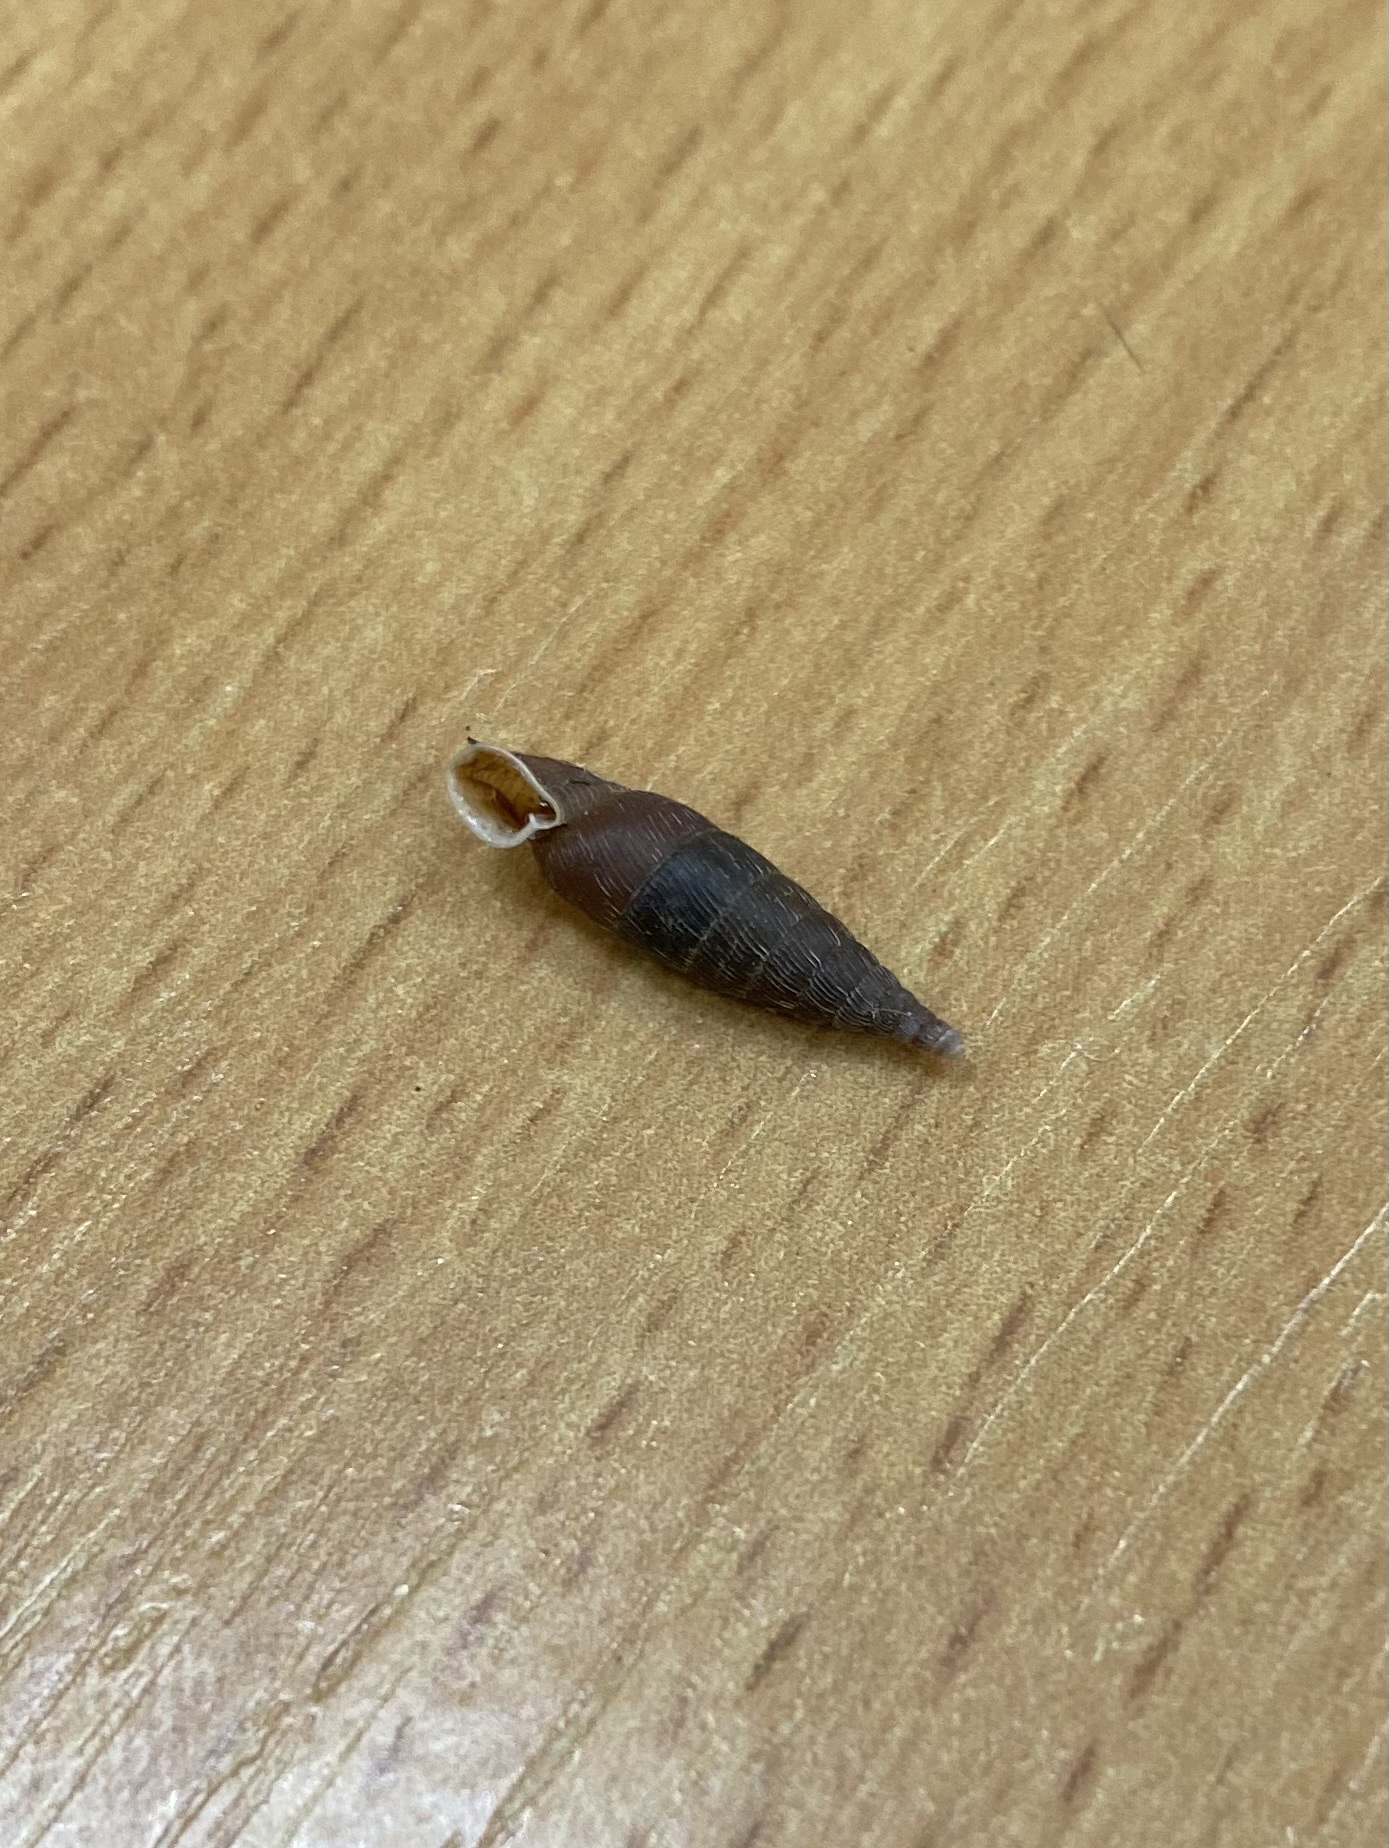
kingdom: Animalia
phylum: Mollusca
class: Gastropoda
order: Stylommatophora
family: Clausiliidae
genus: Scrobifera
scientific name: Scrobifera taurica
